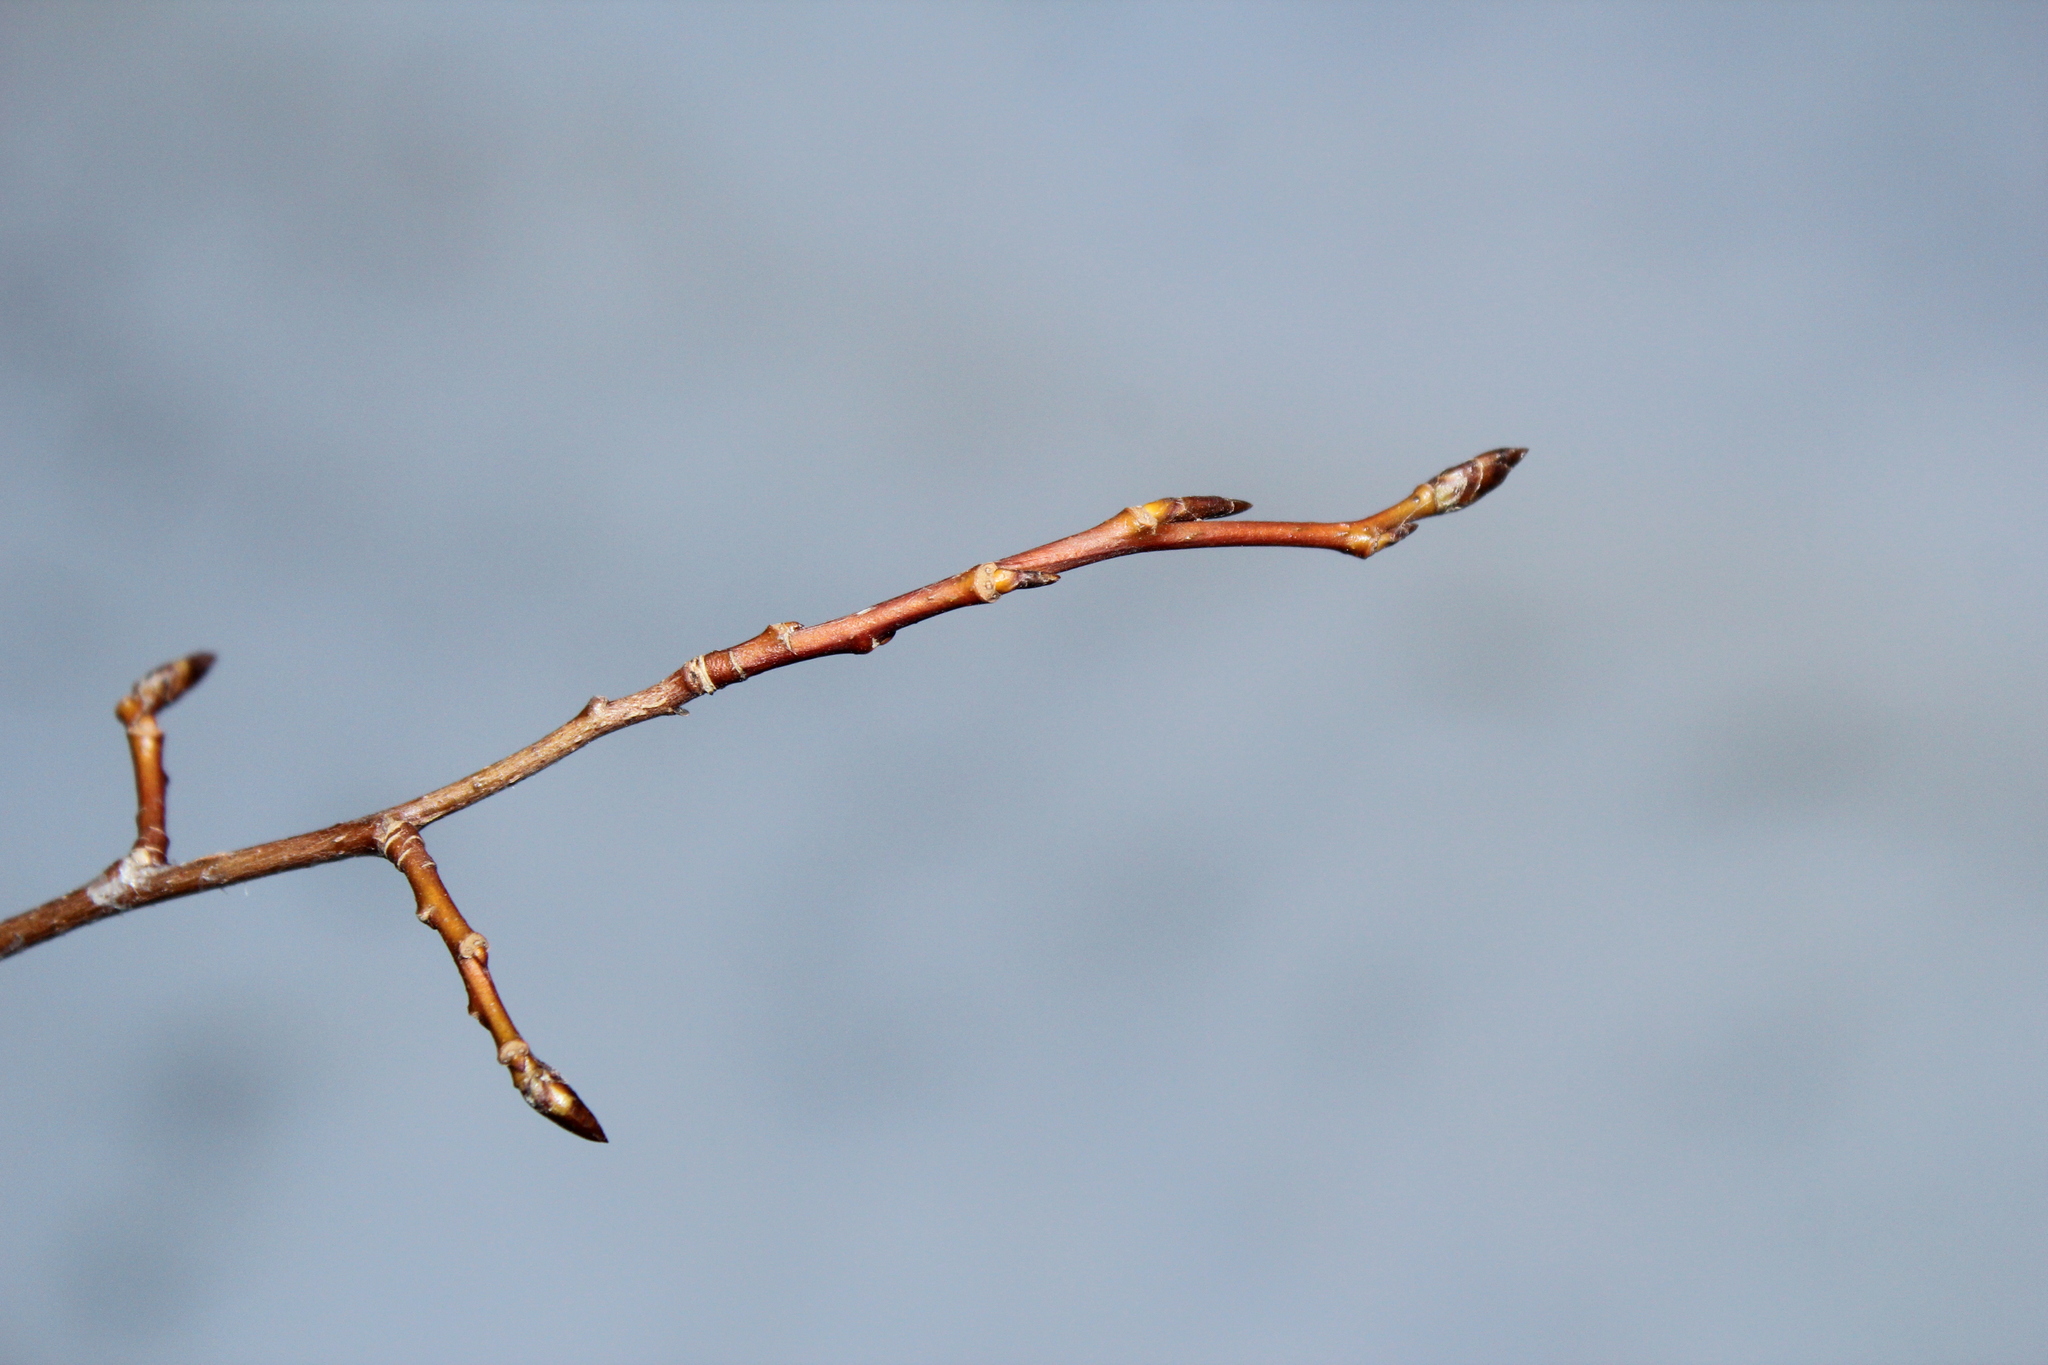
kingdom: Plantae
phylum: Tracheophyta
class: Magnoliopsida
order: Malpighiales
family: Salicaceae
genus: Populus
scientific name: Populus tremuloides
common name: Quaking aspen
